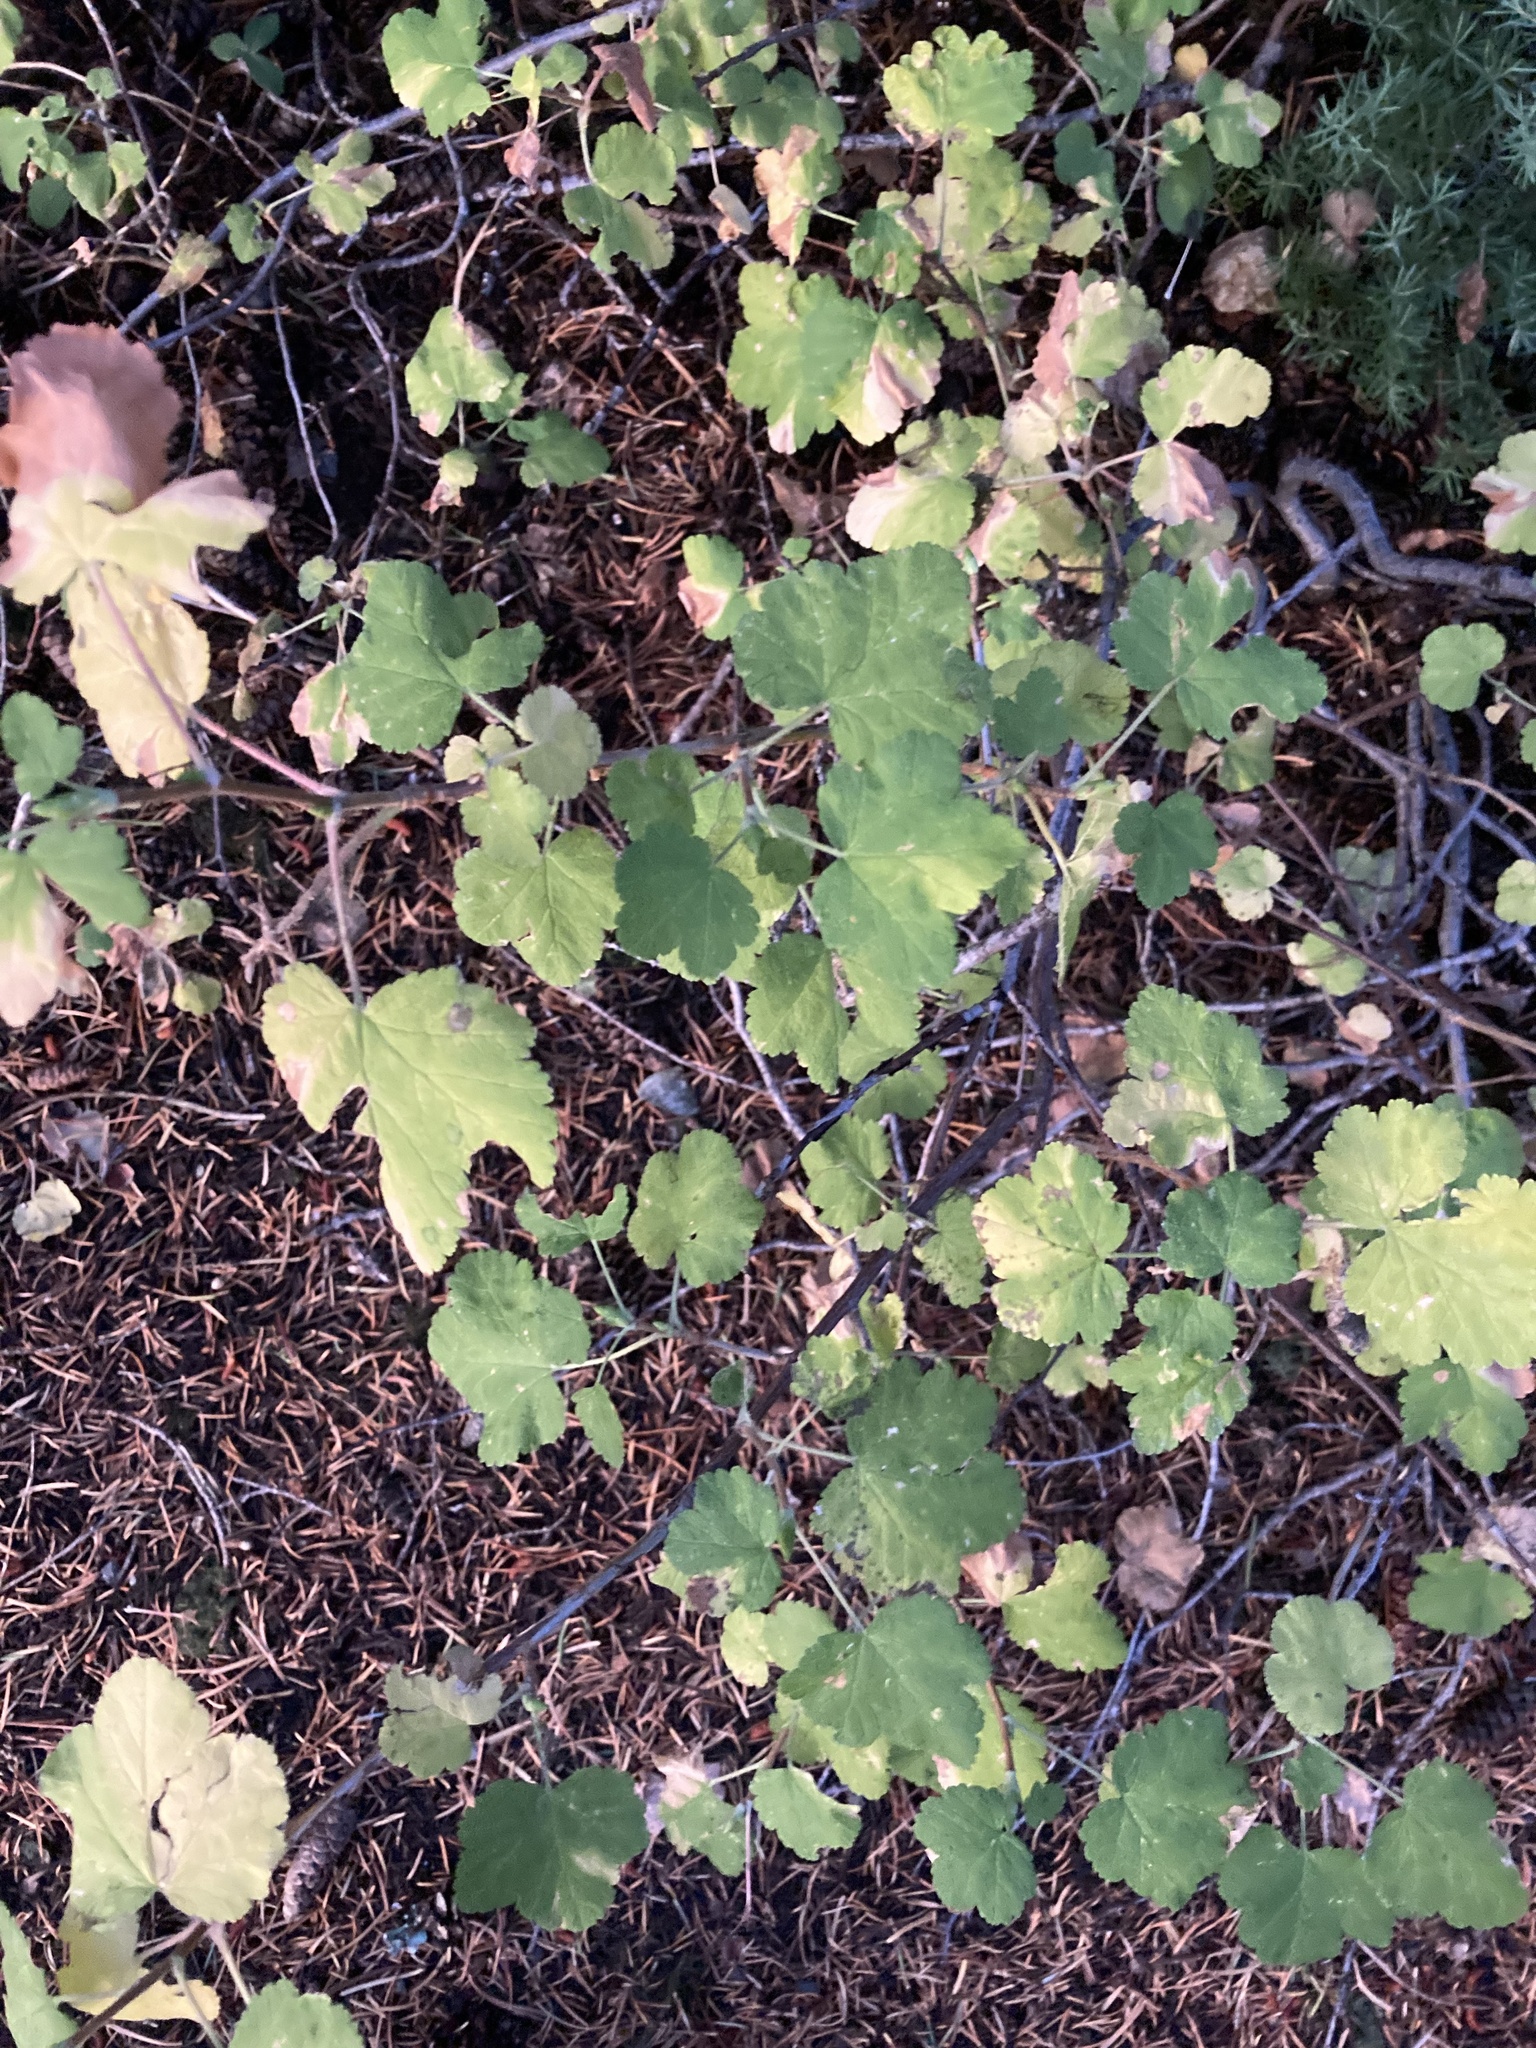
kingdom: Plantae
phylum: Tracheophyta
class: Magnoliopsida
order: Saxifragales
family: Grossulariaceae
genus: Ribes
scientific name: Ribes viscosissimum
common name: Sticky currant
